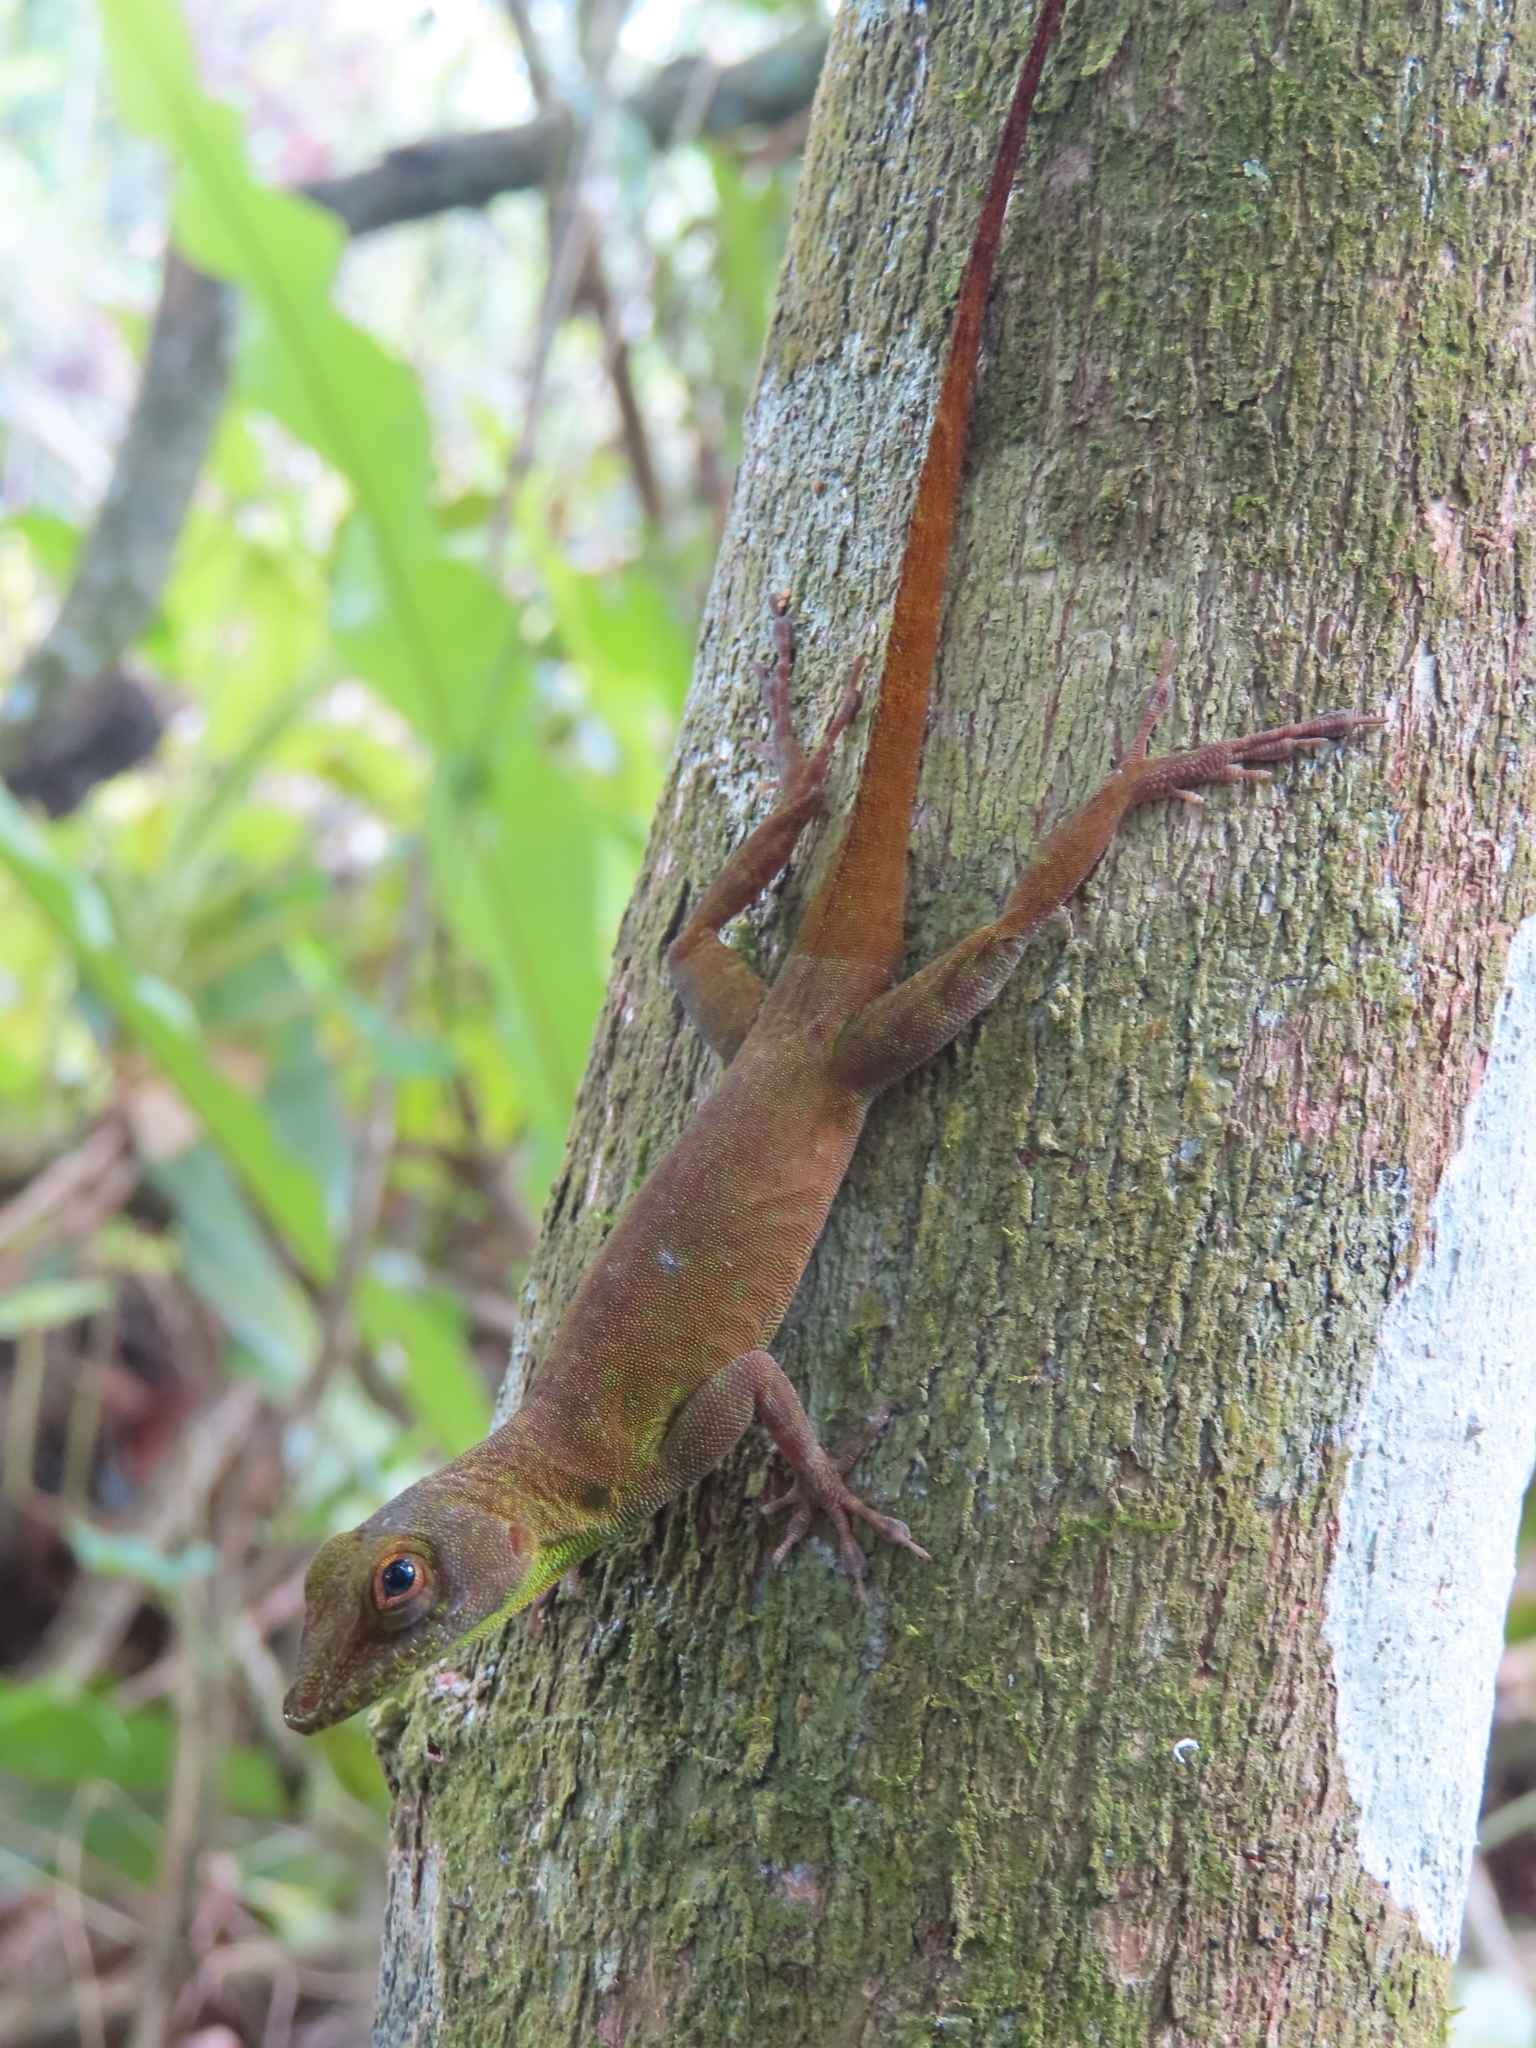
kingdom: Animalia
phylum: Chordata
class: Squamata
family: Dactyloidae
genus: Anolis
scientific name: Anolis evermanni
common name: Emerald anole
